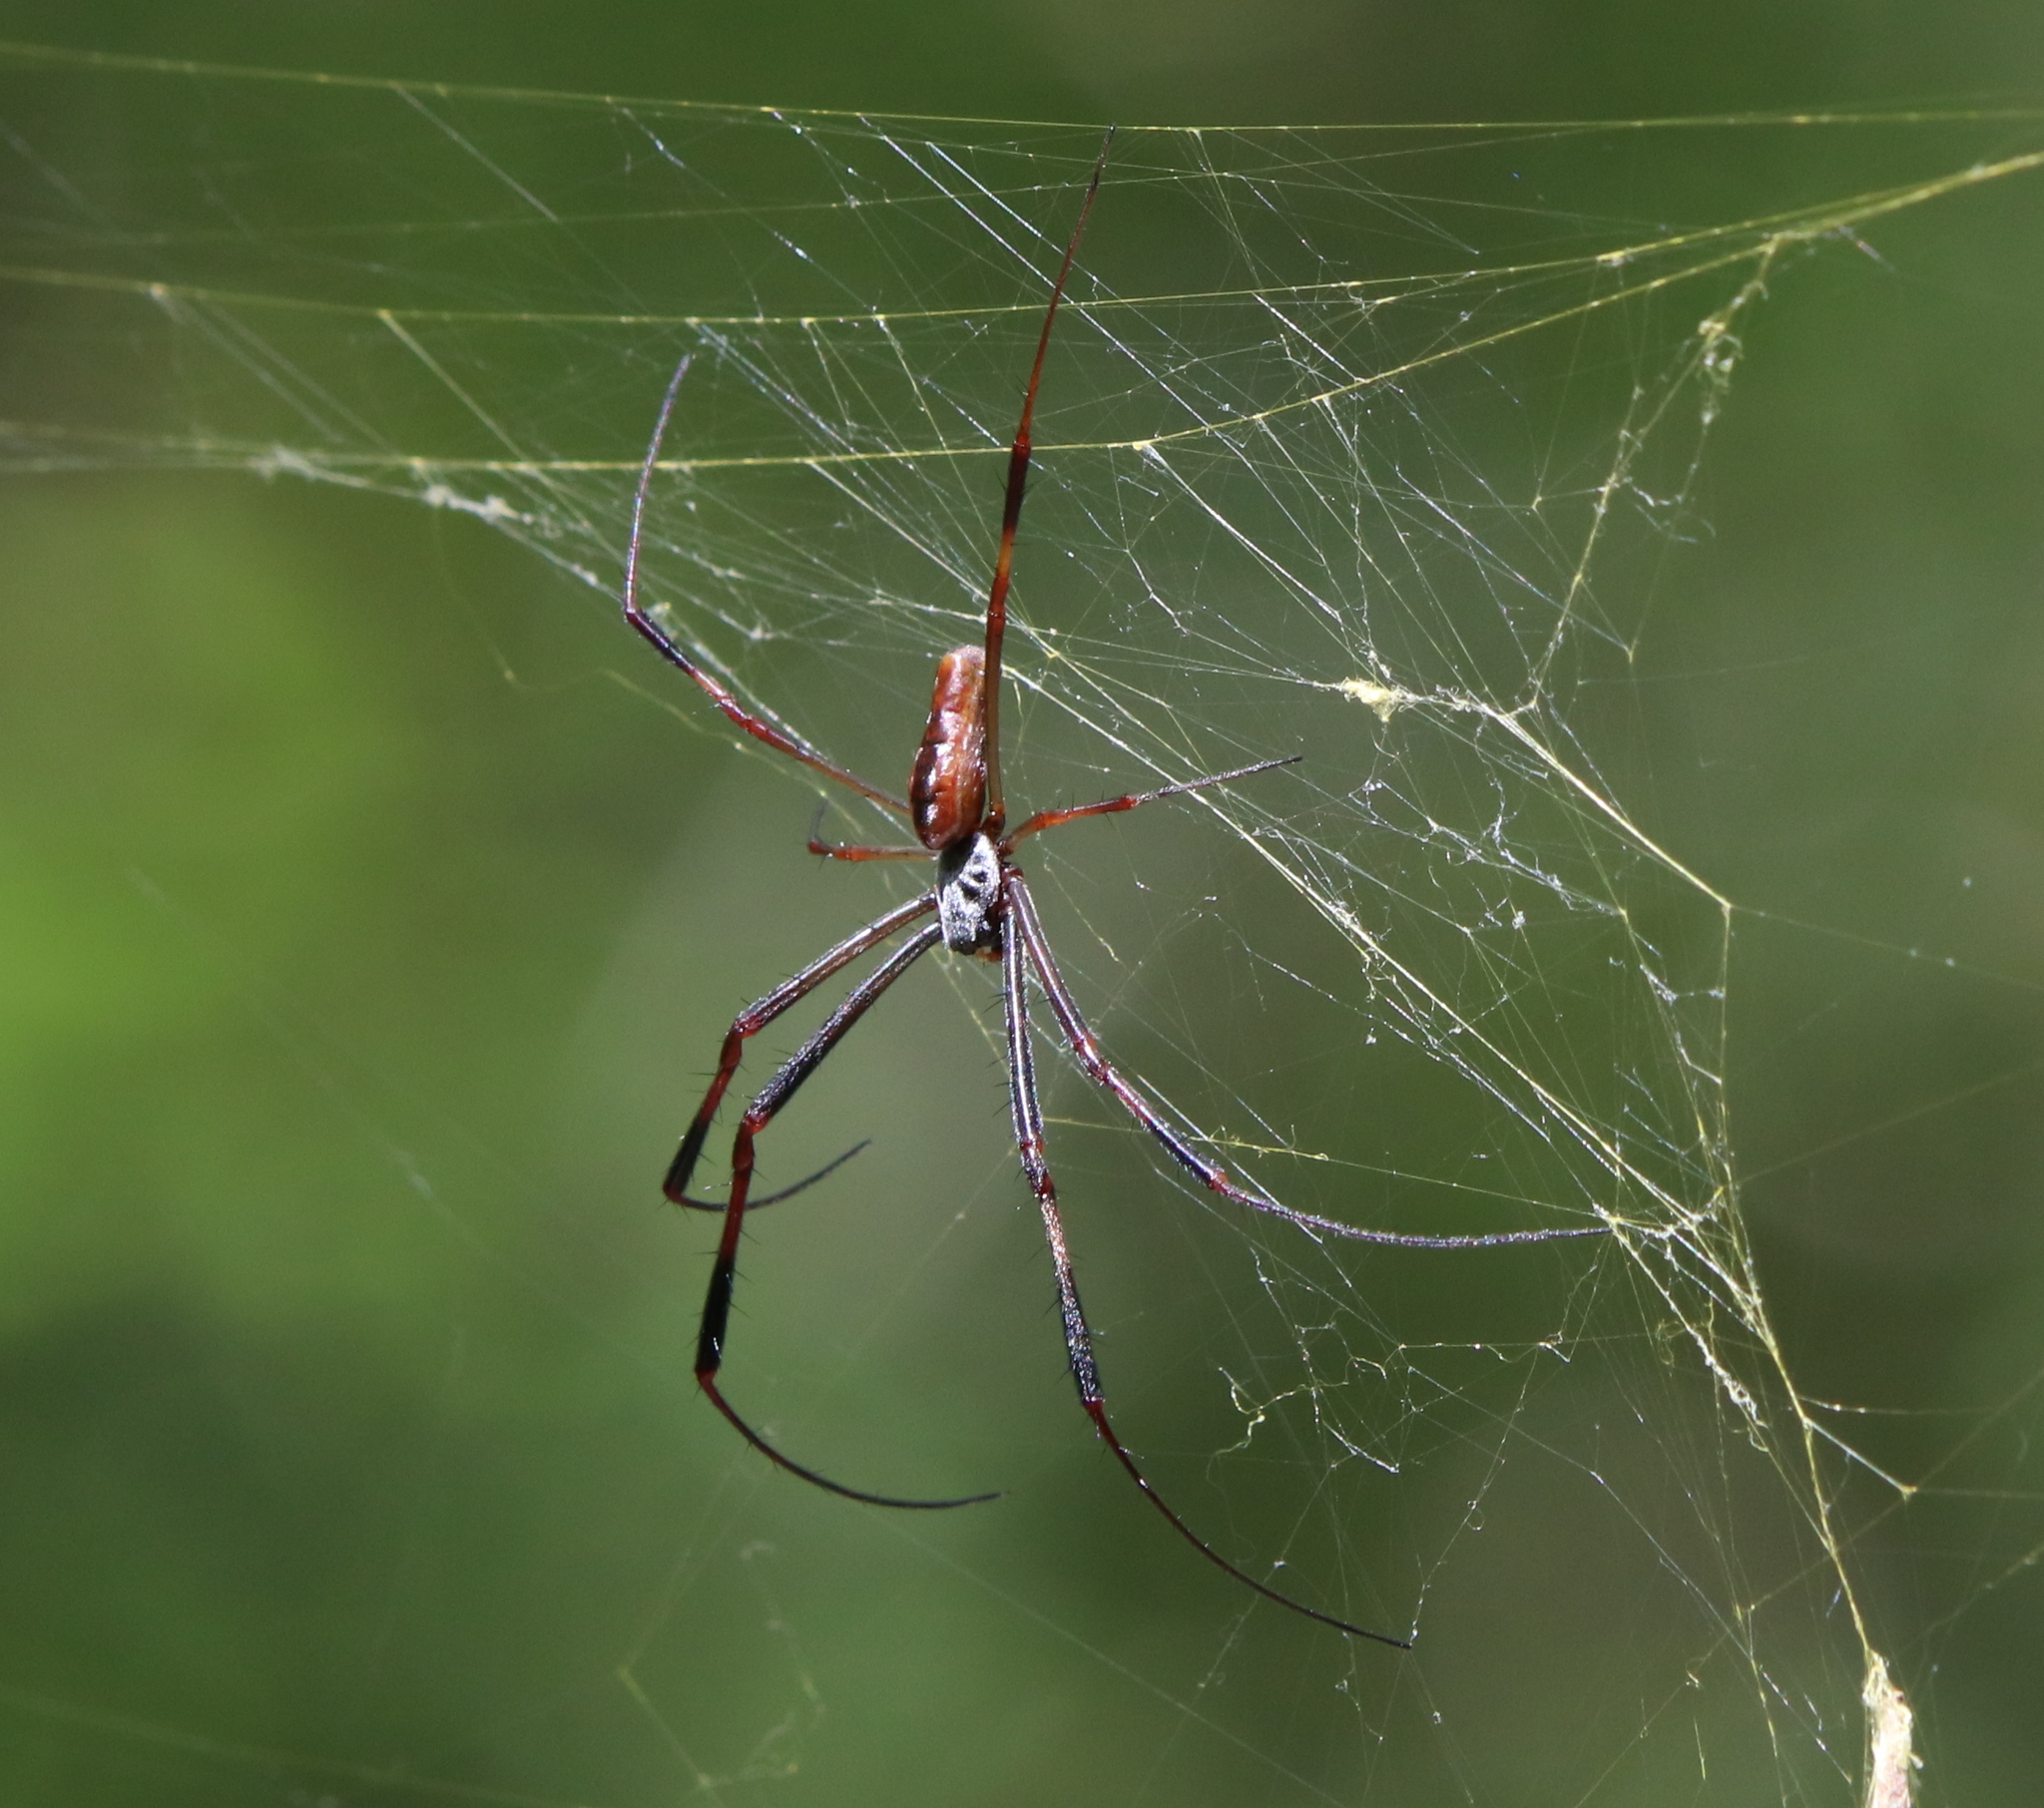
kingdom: Animalia
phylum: Arthropoda
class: Arachnida
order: Araneae
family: Araneidae
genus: Trichonephila
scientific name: Trichonephila clavipes
